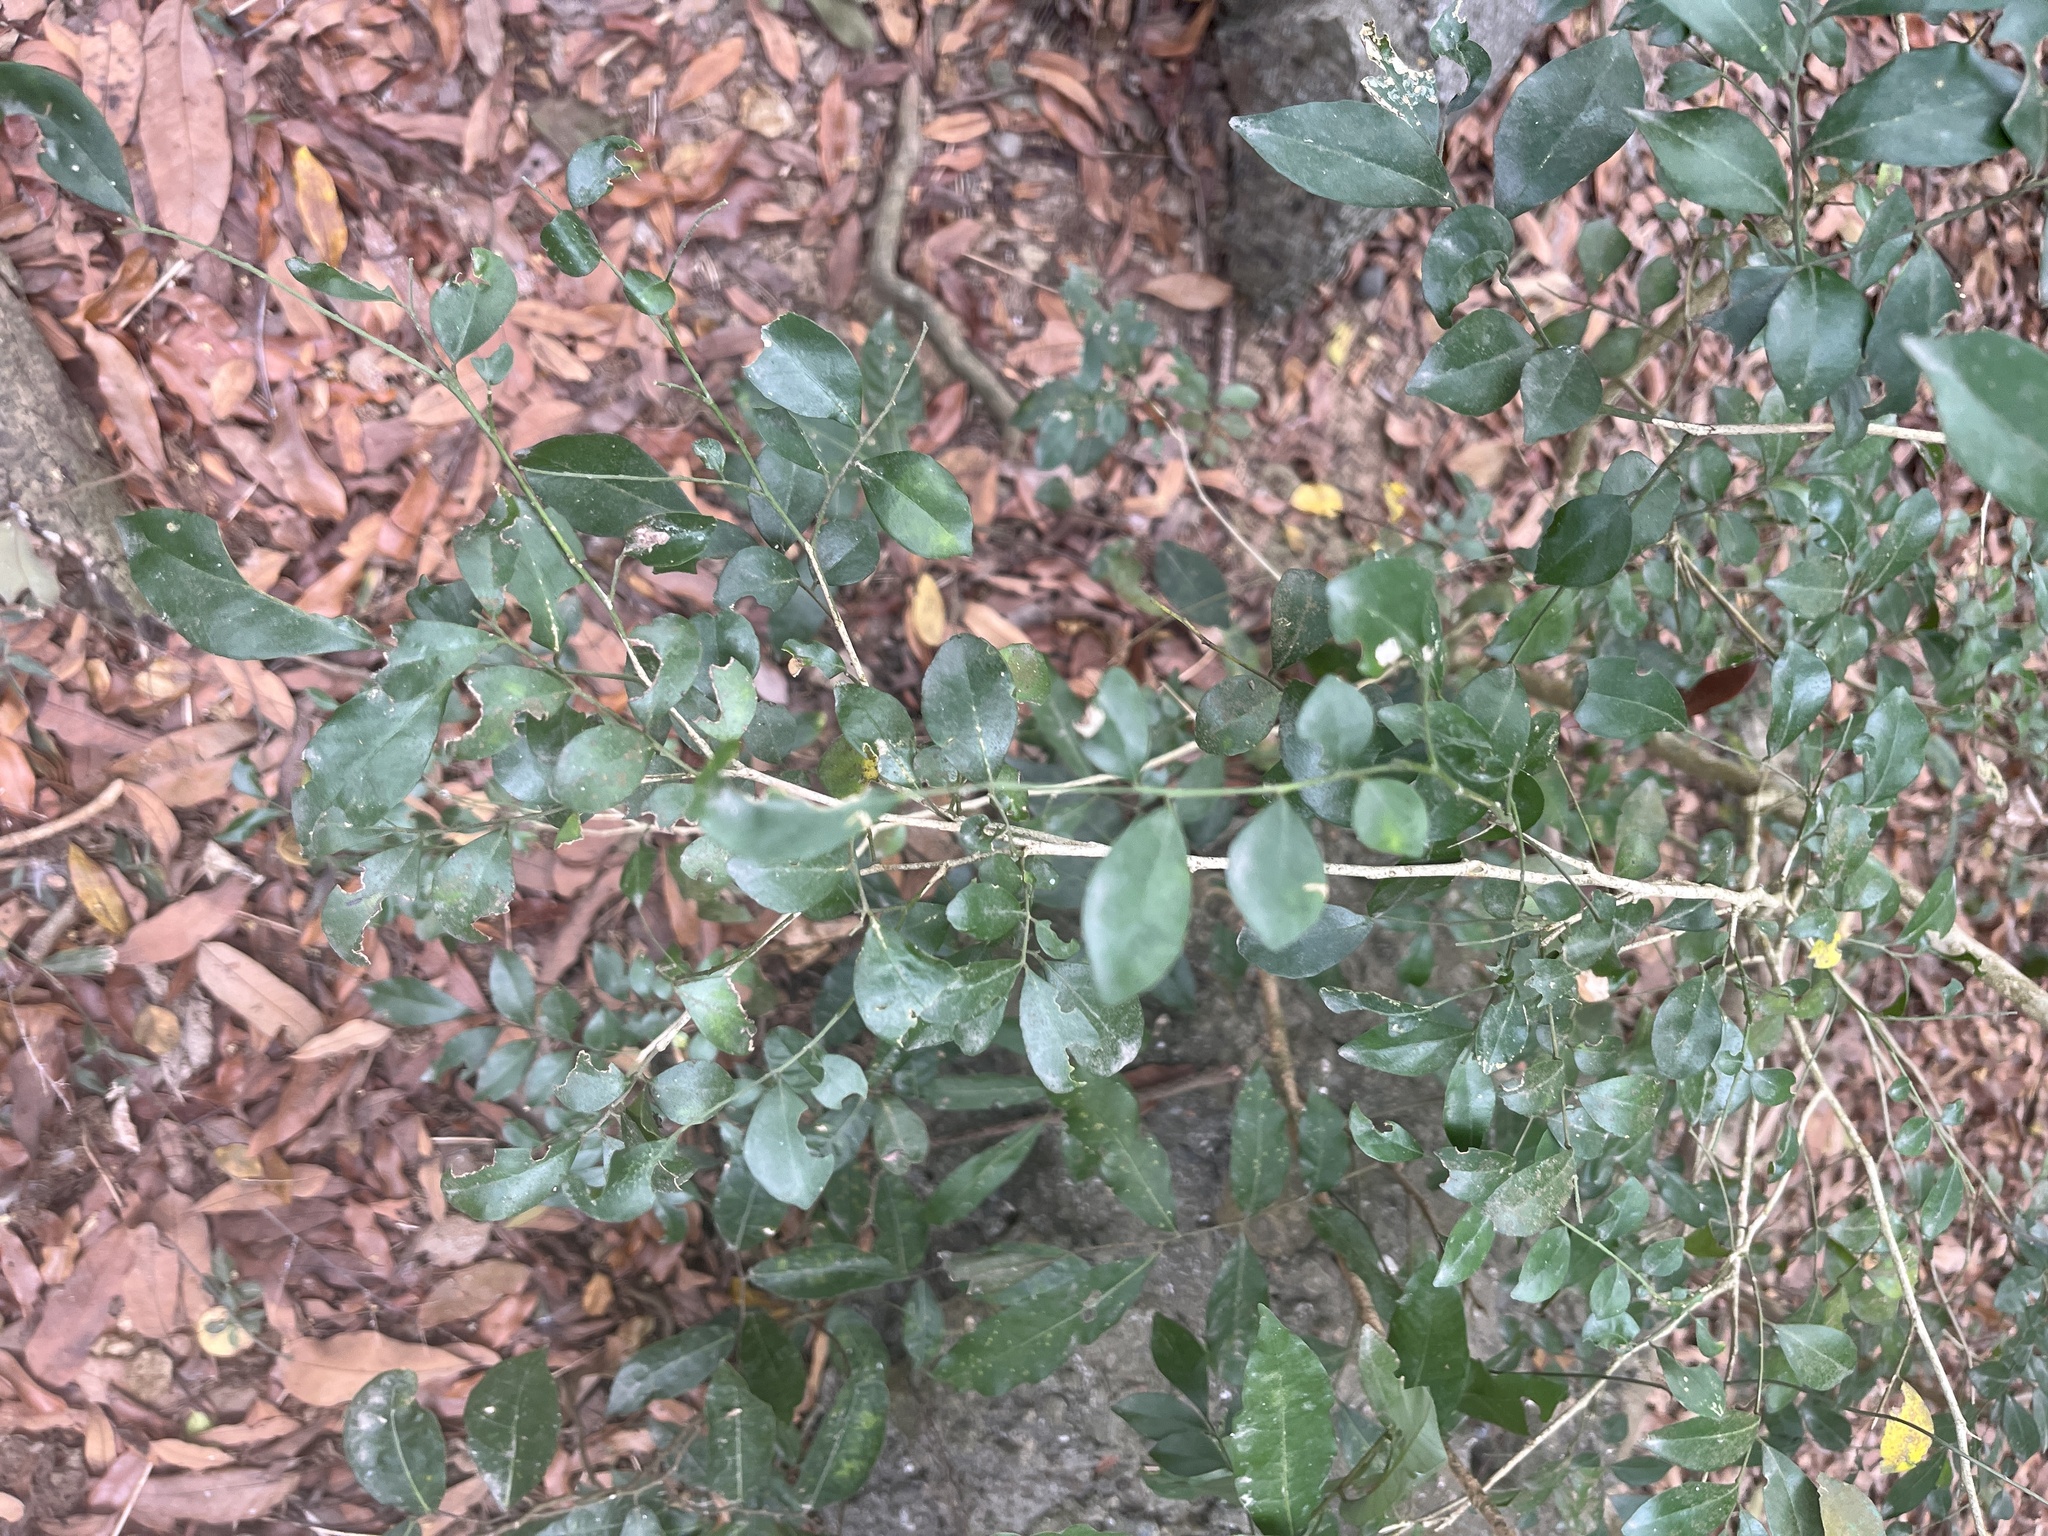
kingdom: Plantae
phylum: Tracheophyta
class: Magnoliopsida
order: Sapindales
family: Rutaceae
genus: Murraya
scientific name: Murraya paniculata
